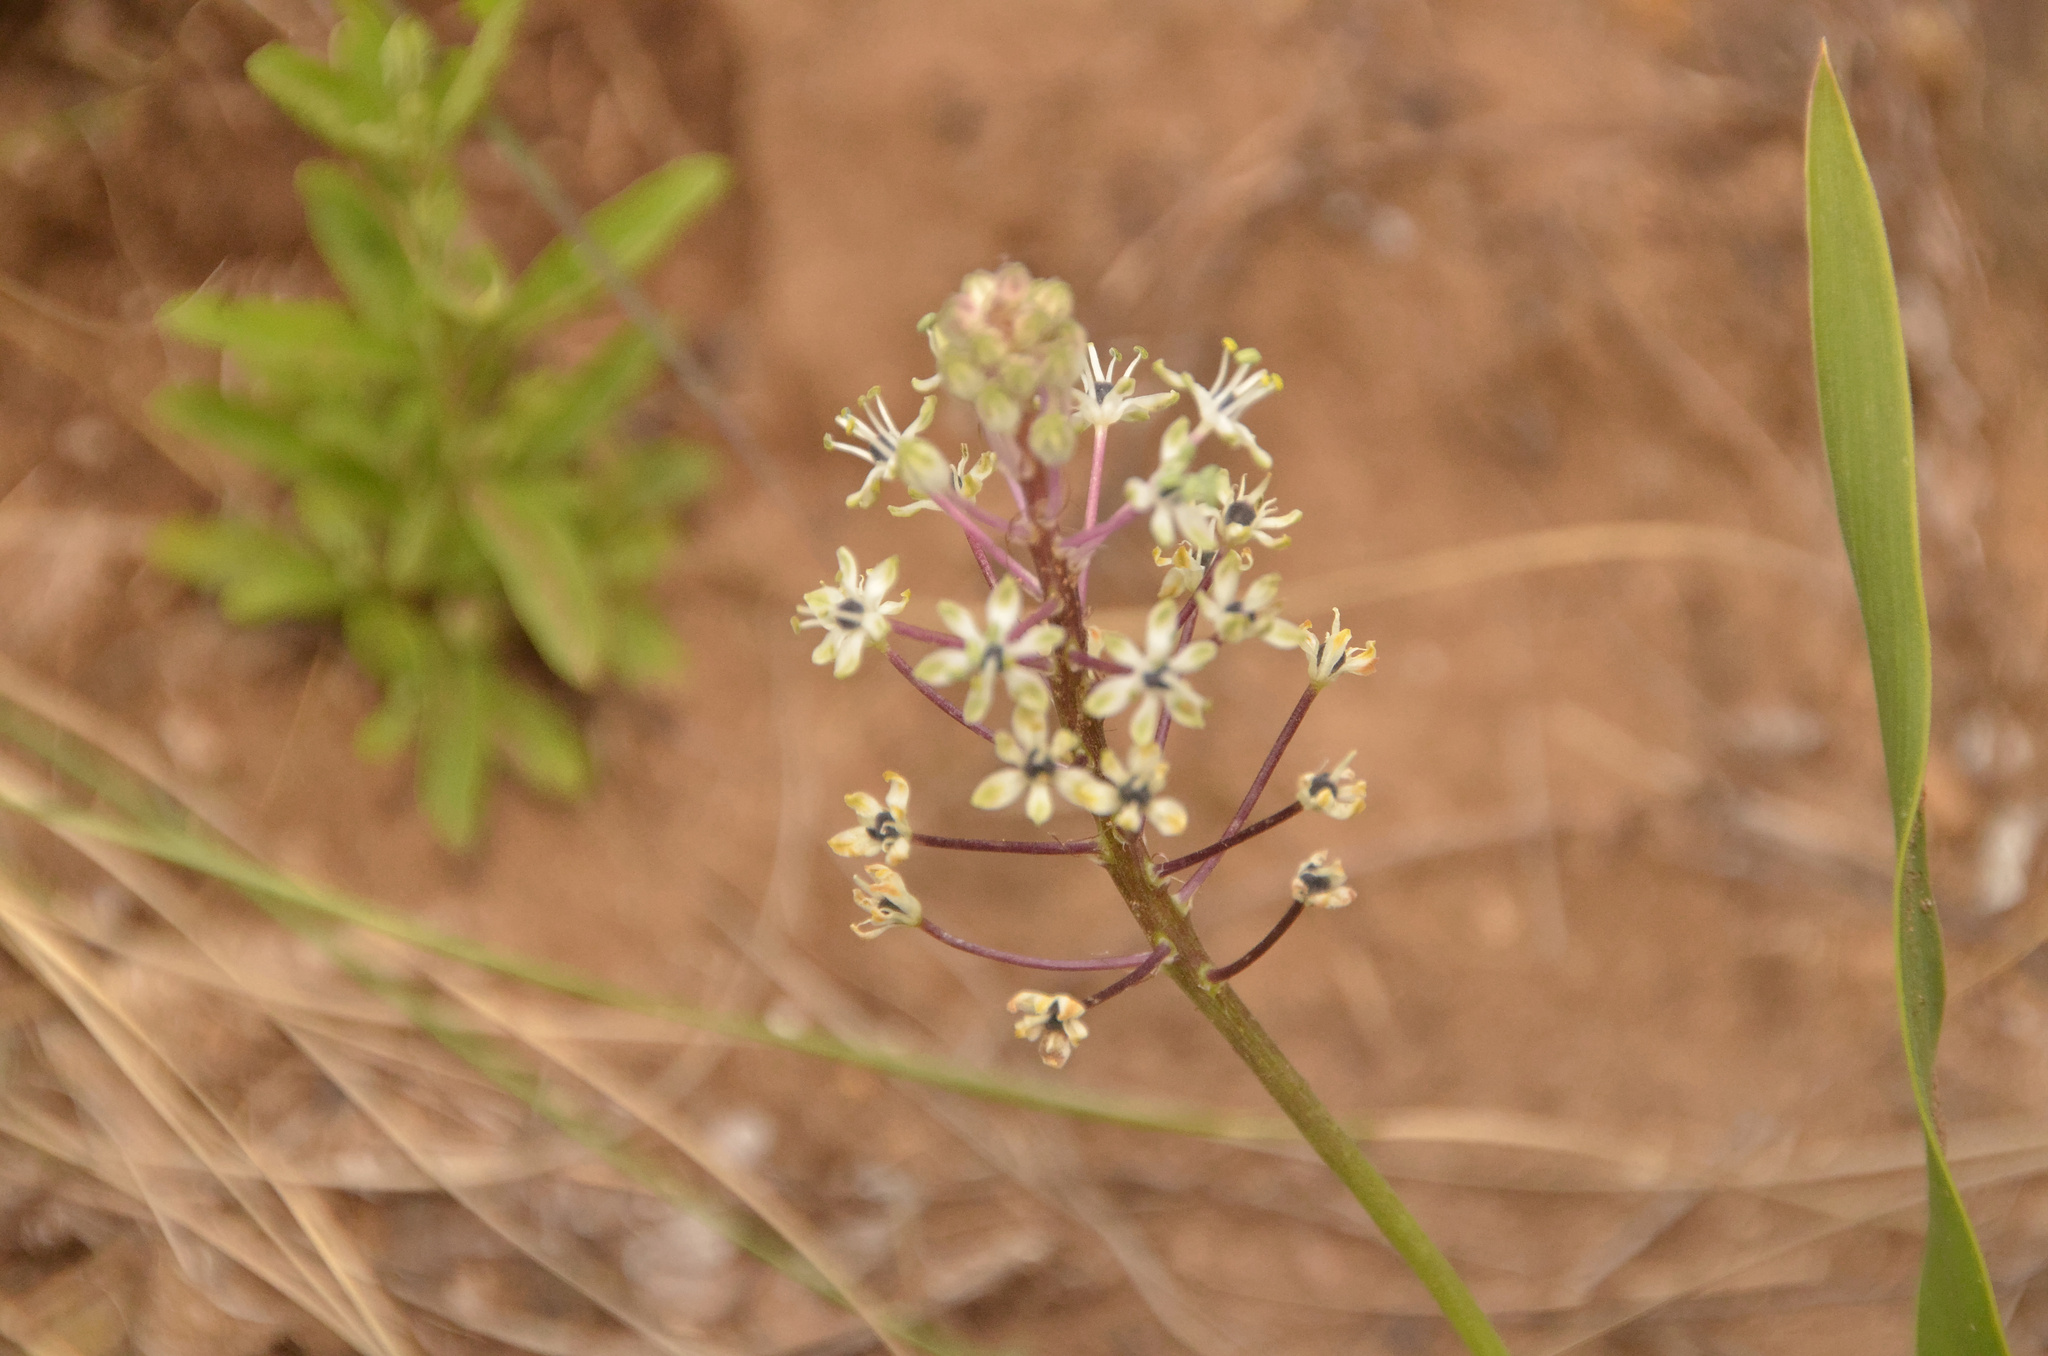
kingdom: Plantae
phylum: Tracheophyta
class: Liliopsida
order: Asparagales
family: Asparagaceae
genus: Schizocarphus
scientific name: Schizocarphus nervosus
